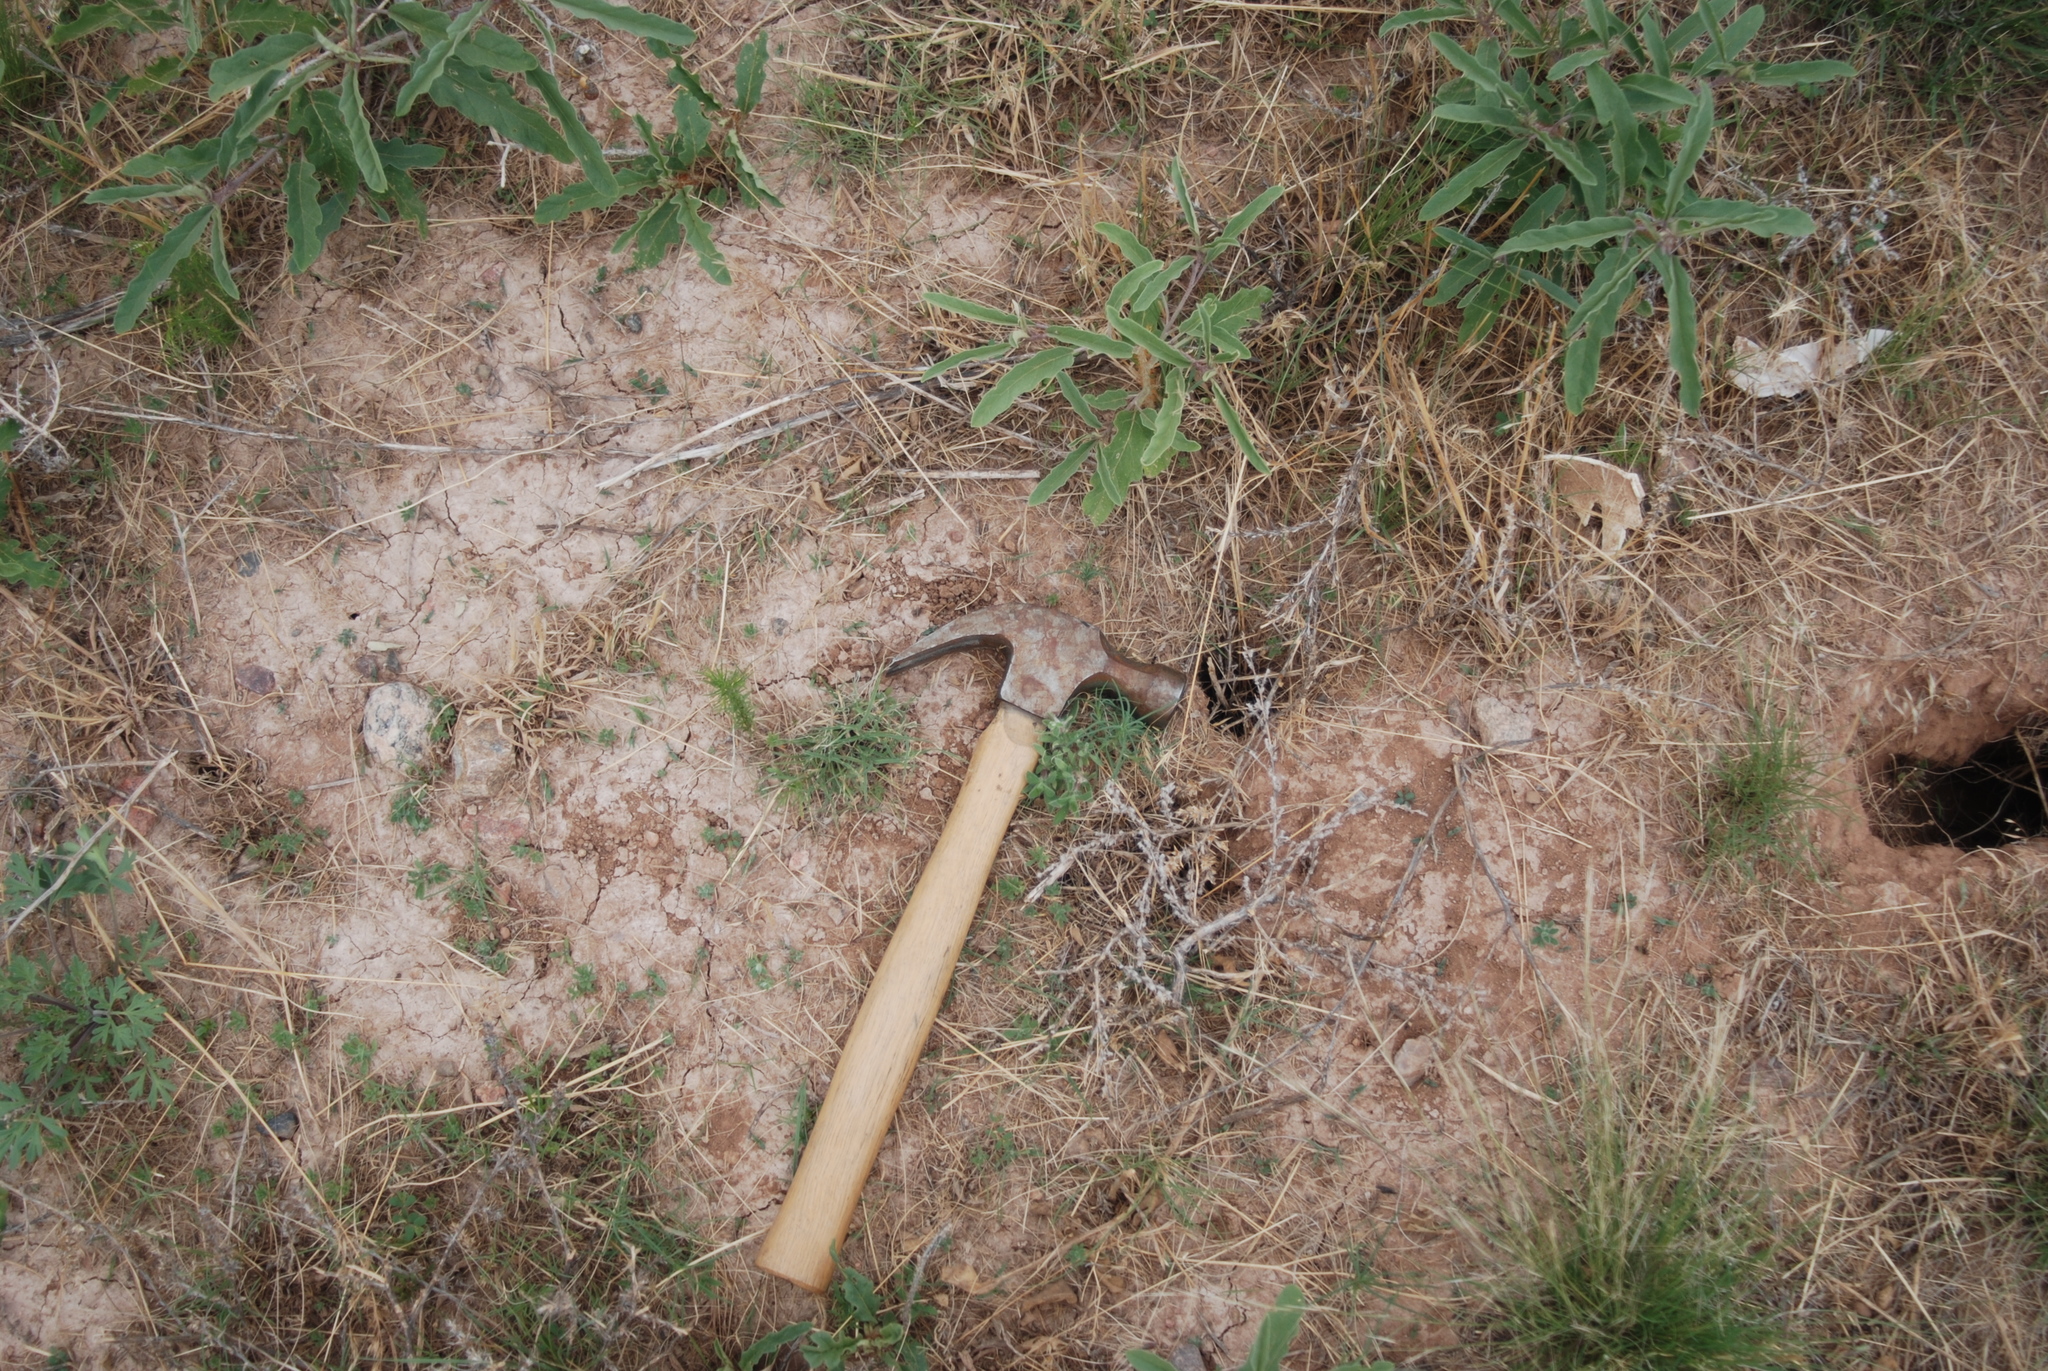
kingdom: Plantae
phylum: Tracheophyta
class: Magnoliopsida
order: Solanales
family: Solanaceae
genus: Solanum
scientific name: Solanum elaeagnifolium
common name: Silverleaf nightshade
